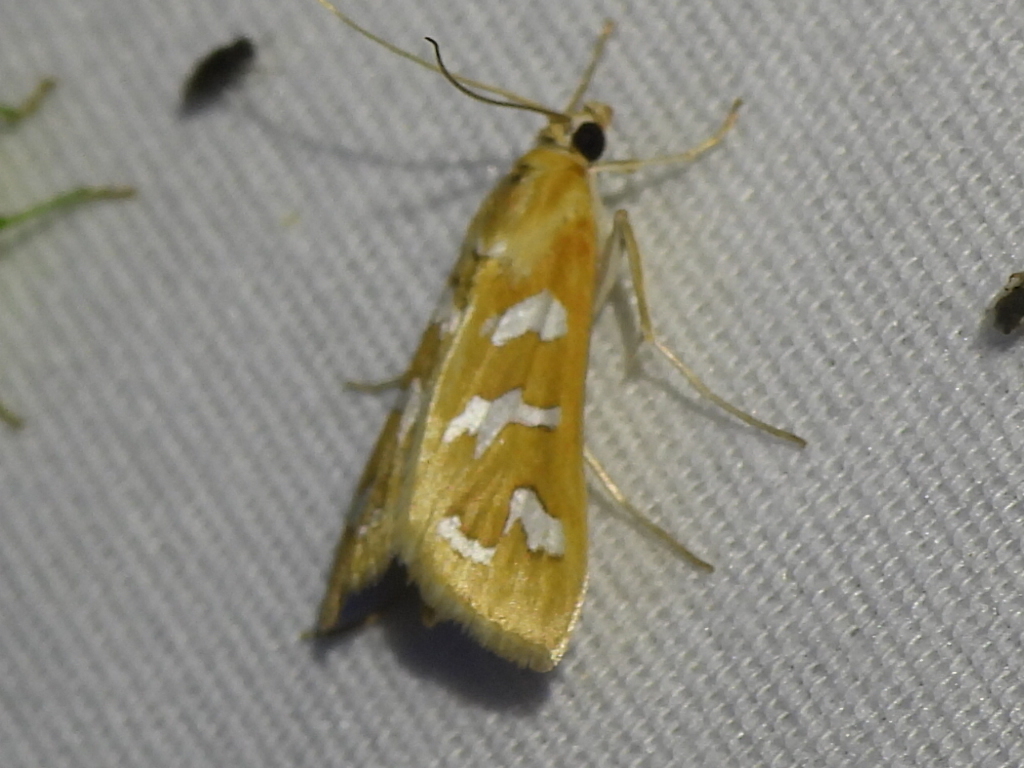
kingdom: Animalia
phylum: Arthropoda
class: Insecta
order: Lepidoptera
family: Crambidae
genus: Diastictis
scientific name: Diastictis fracturalis
